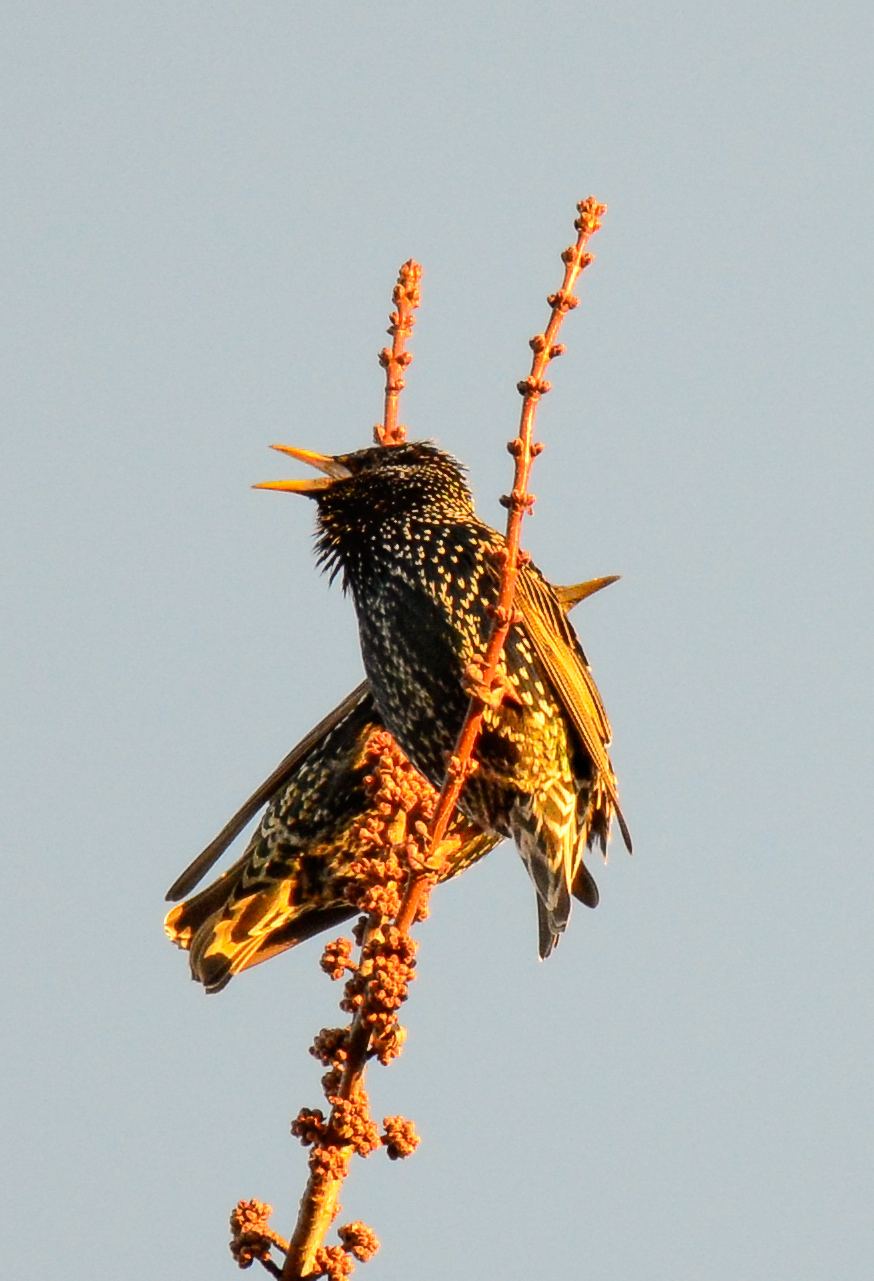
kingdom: Animalia
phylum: Chordata
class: Aves
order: Passeriformes
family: Sturnidae
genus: Sturnus
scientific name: Sturnus vulgaris
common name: Common starling
